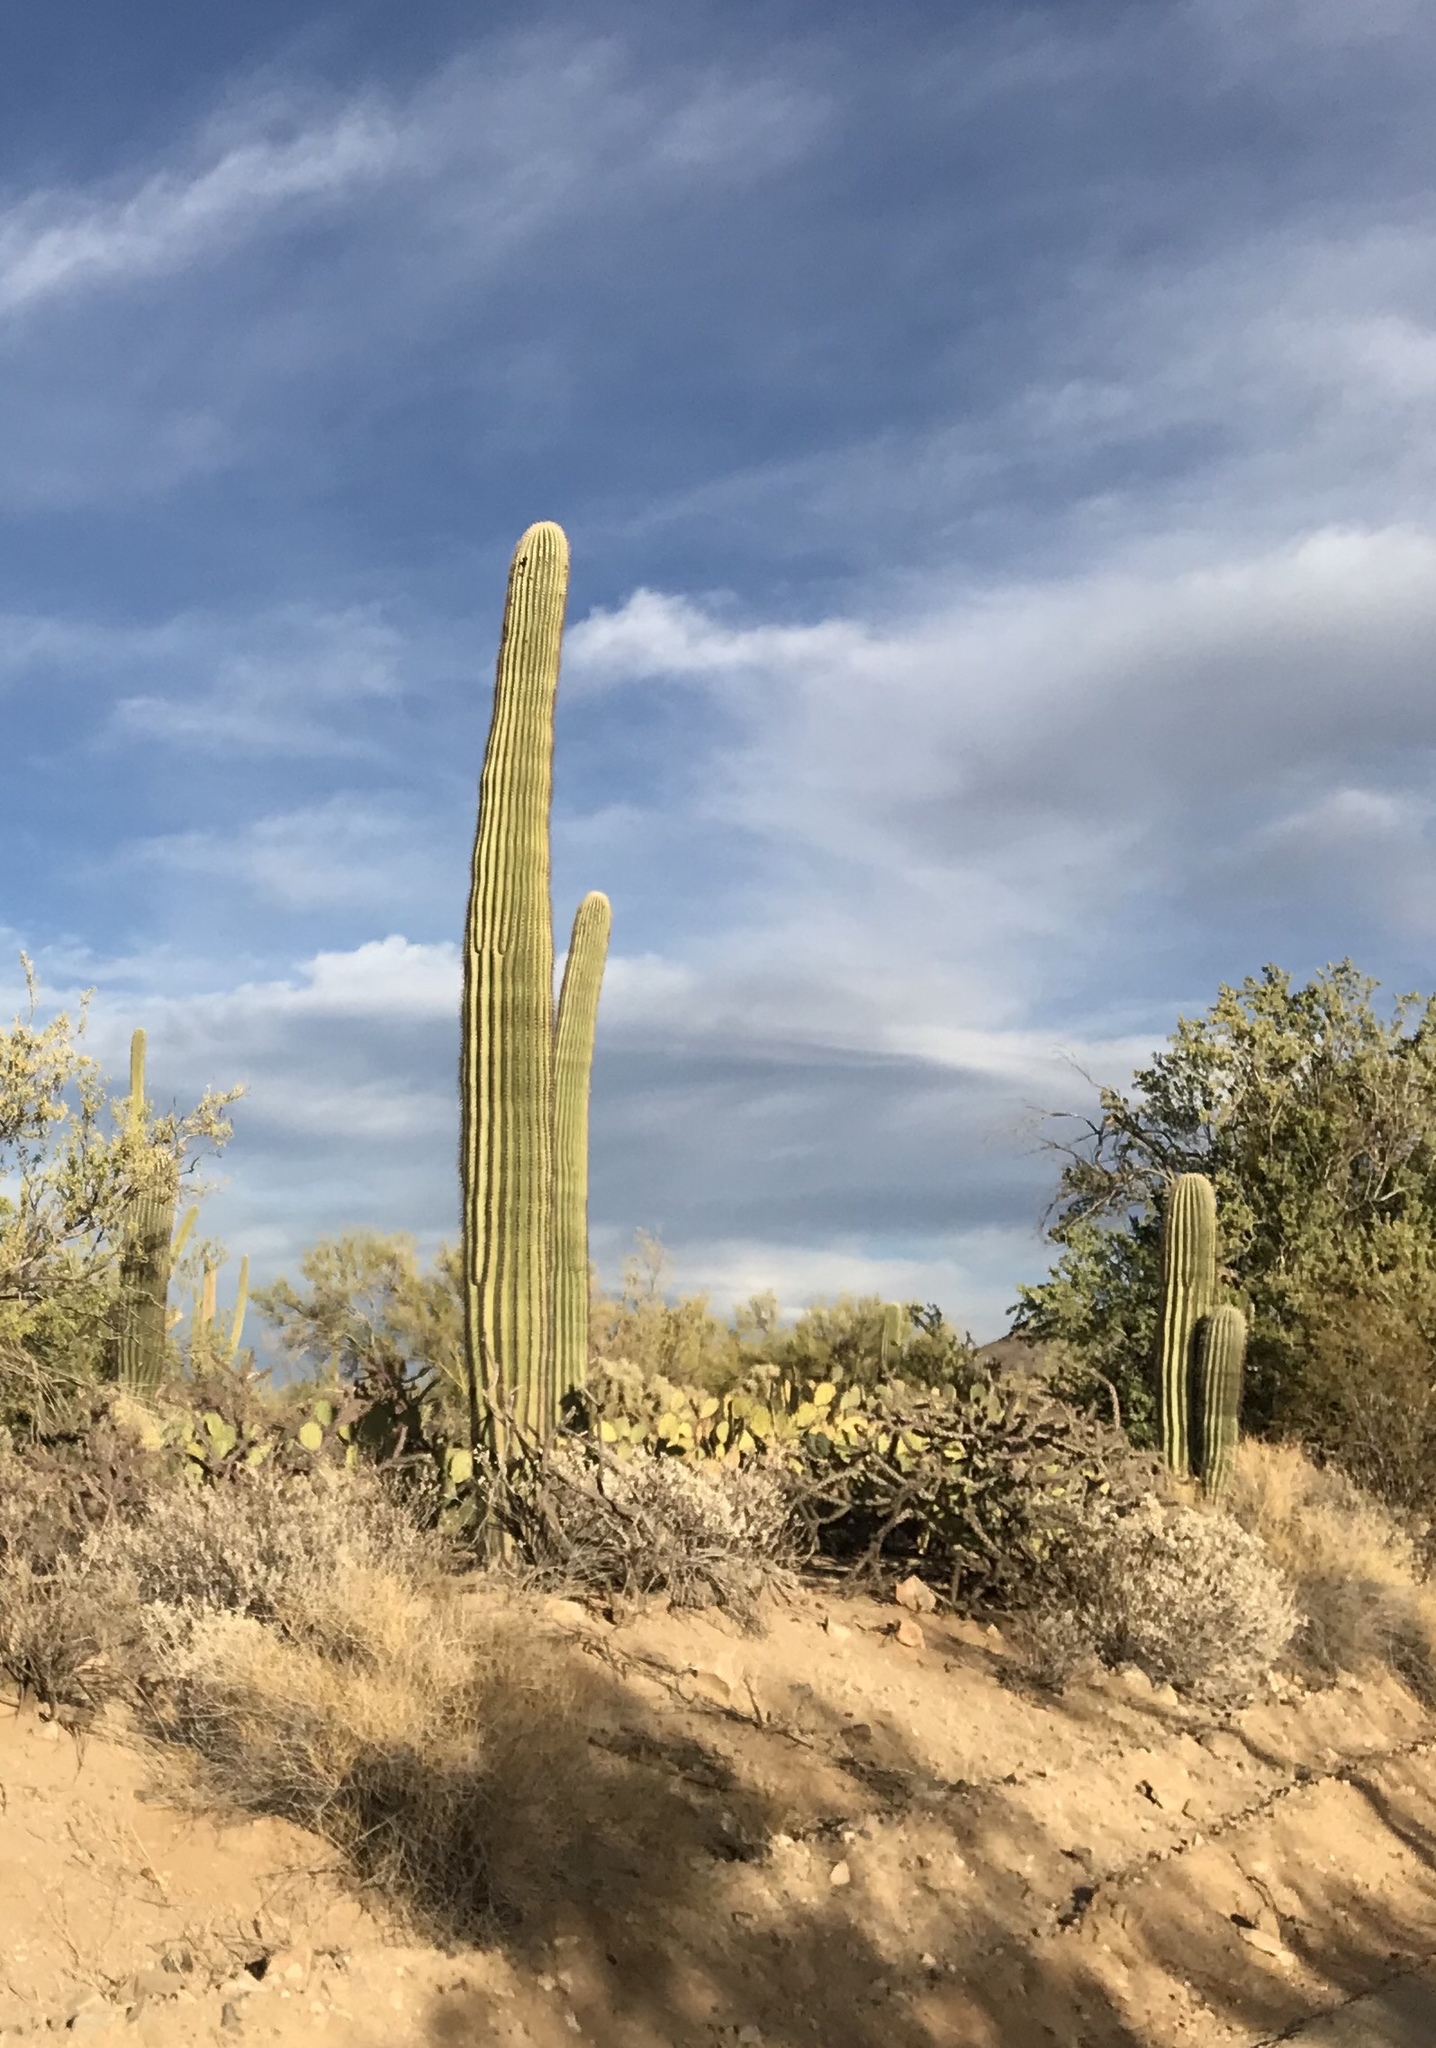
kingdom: Plantae
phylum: Tracheophyta
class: Magnoliopsida
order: Caryophyllales
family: Cactaceae
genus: Carnegiea
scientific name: Carnegiea gigantea
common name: Saguaro
